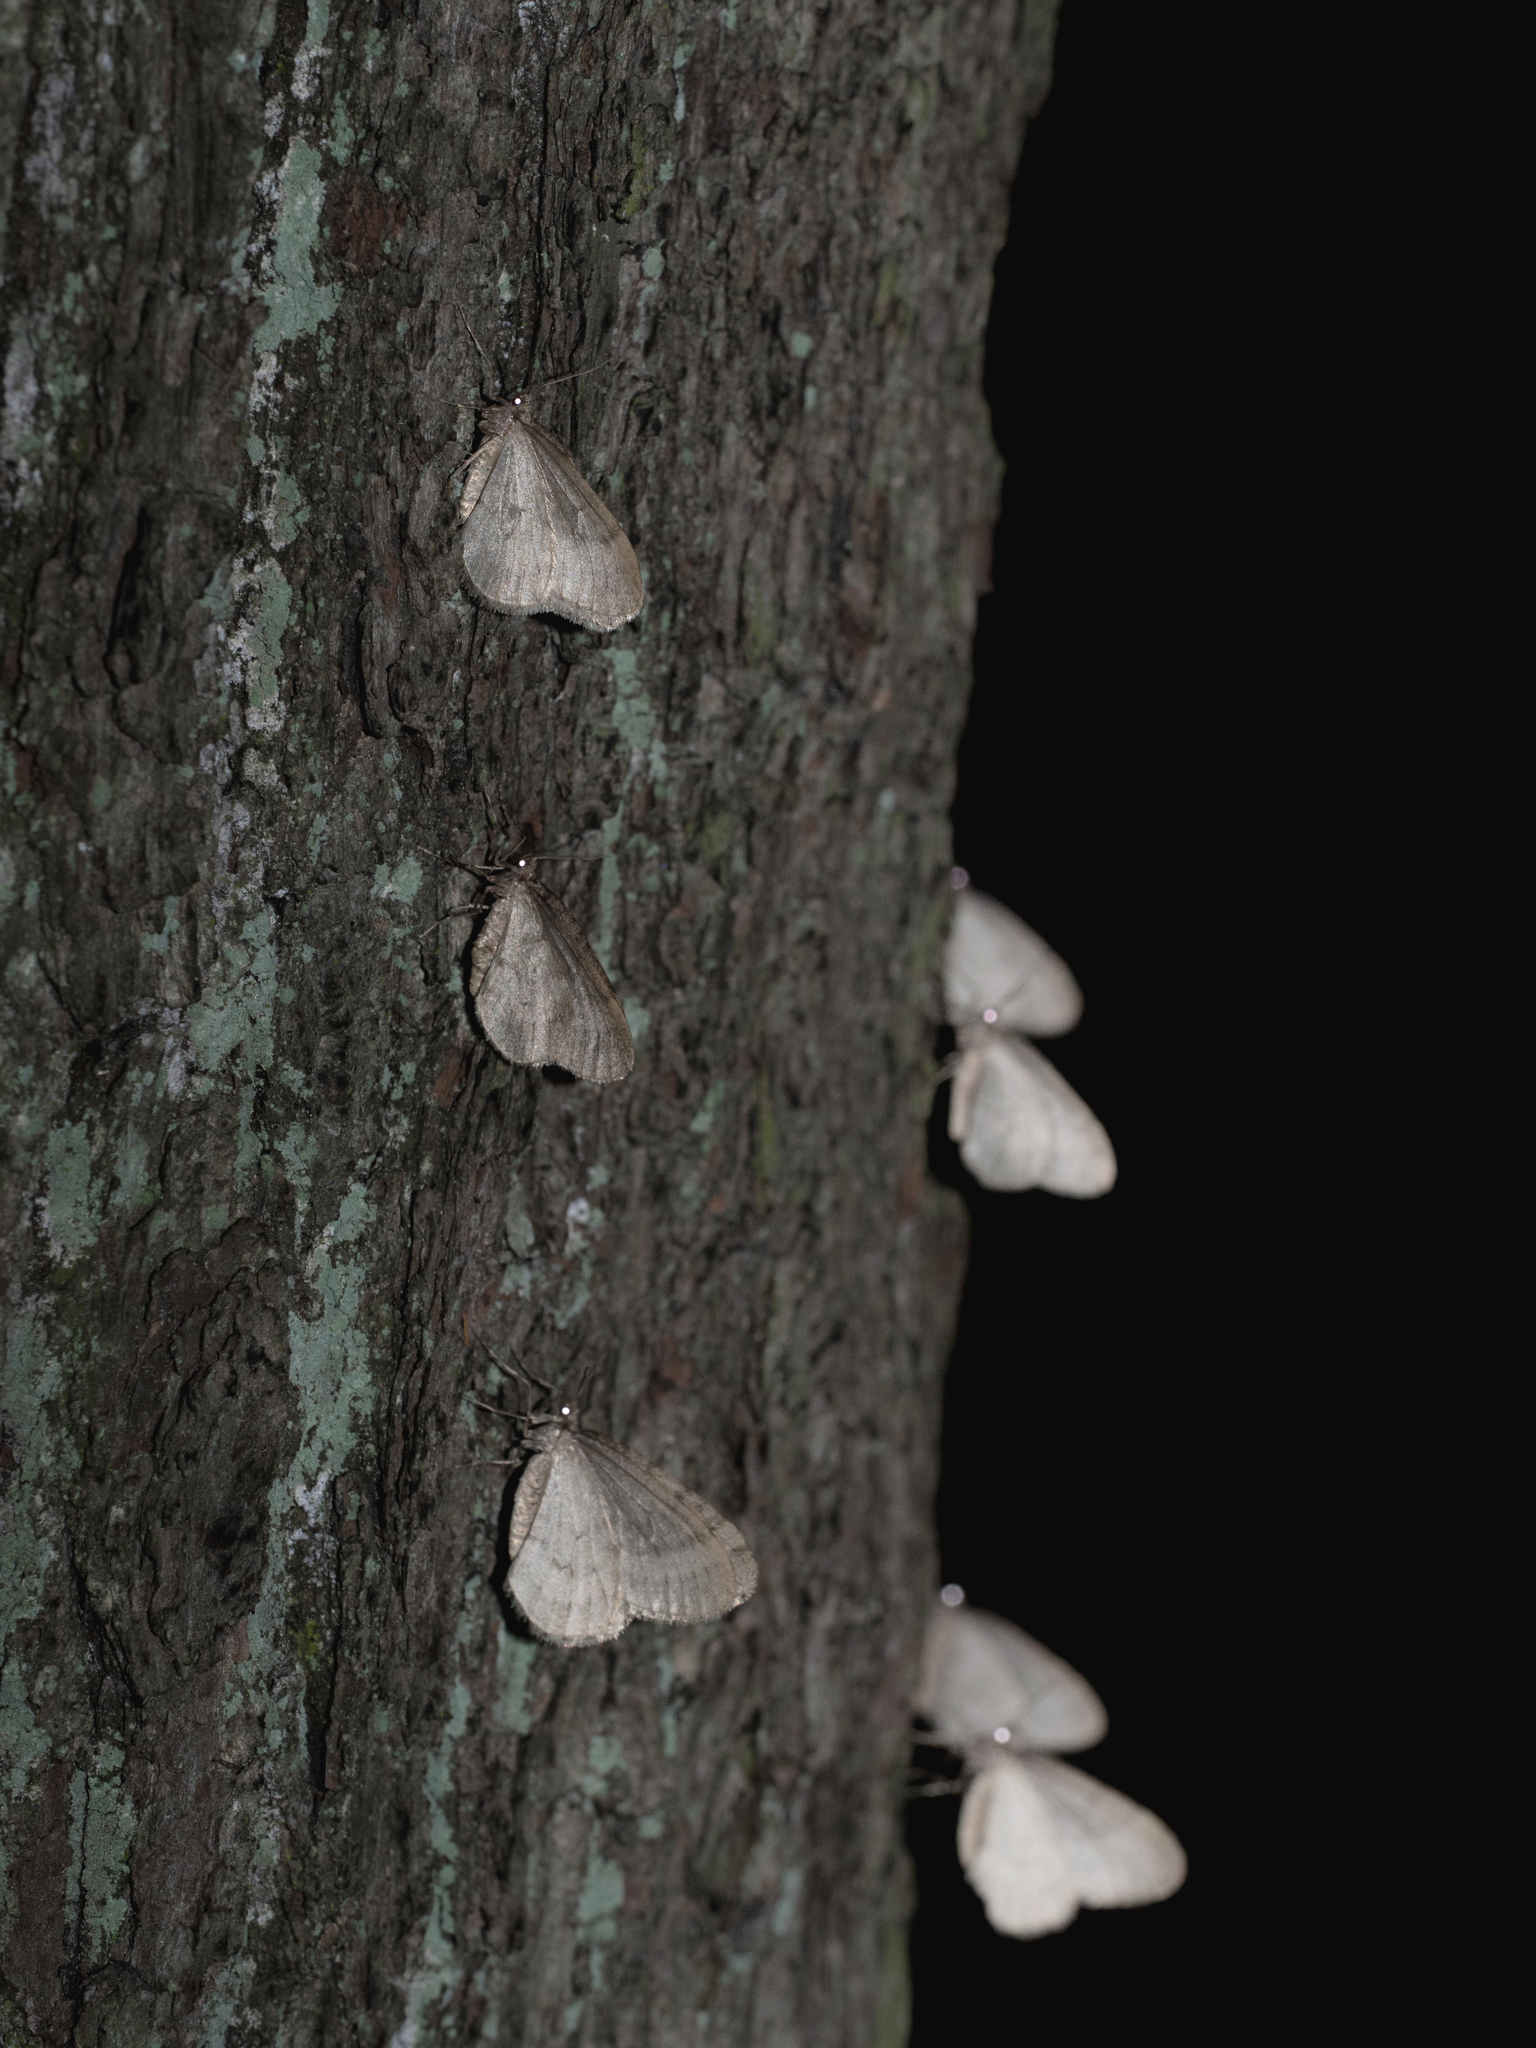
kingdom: Animalia
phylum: Arthropoda
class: Insecta
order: Lepidoptera
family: Geometridae
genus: Operophtera
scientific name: Operophtera brumata
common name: Winter moth
